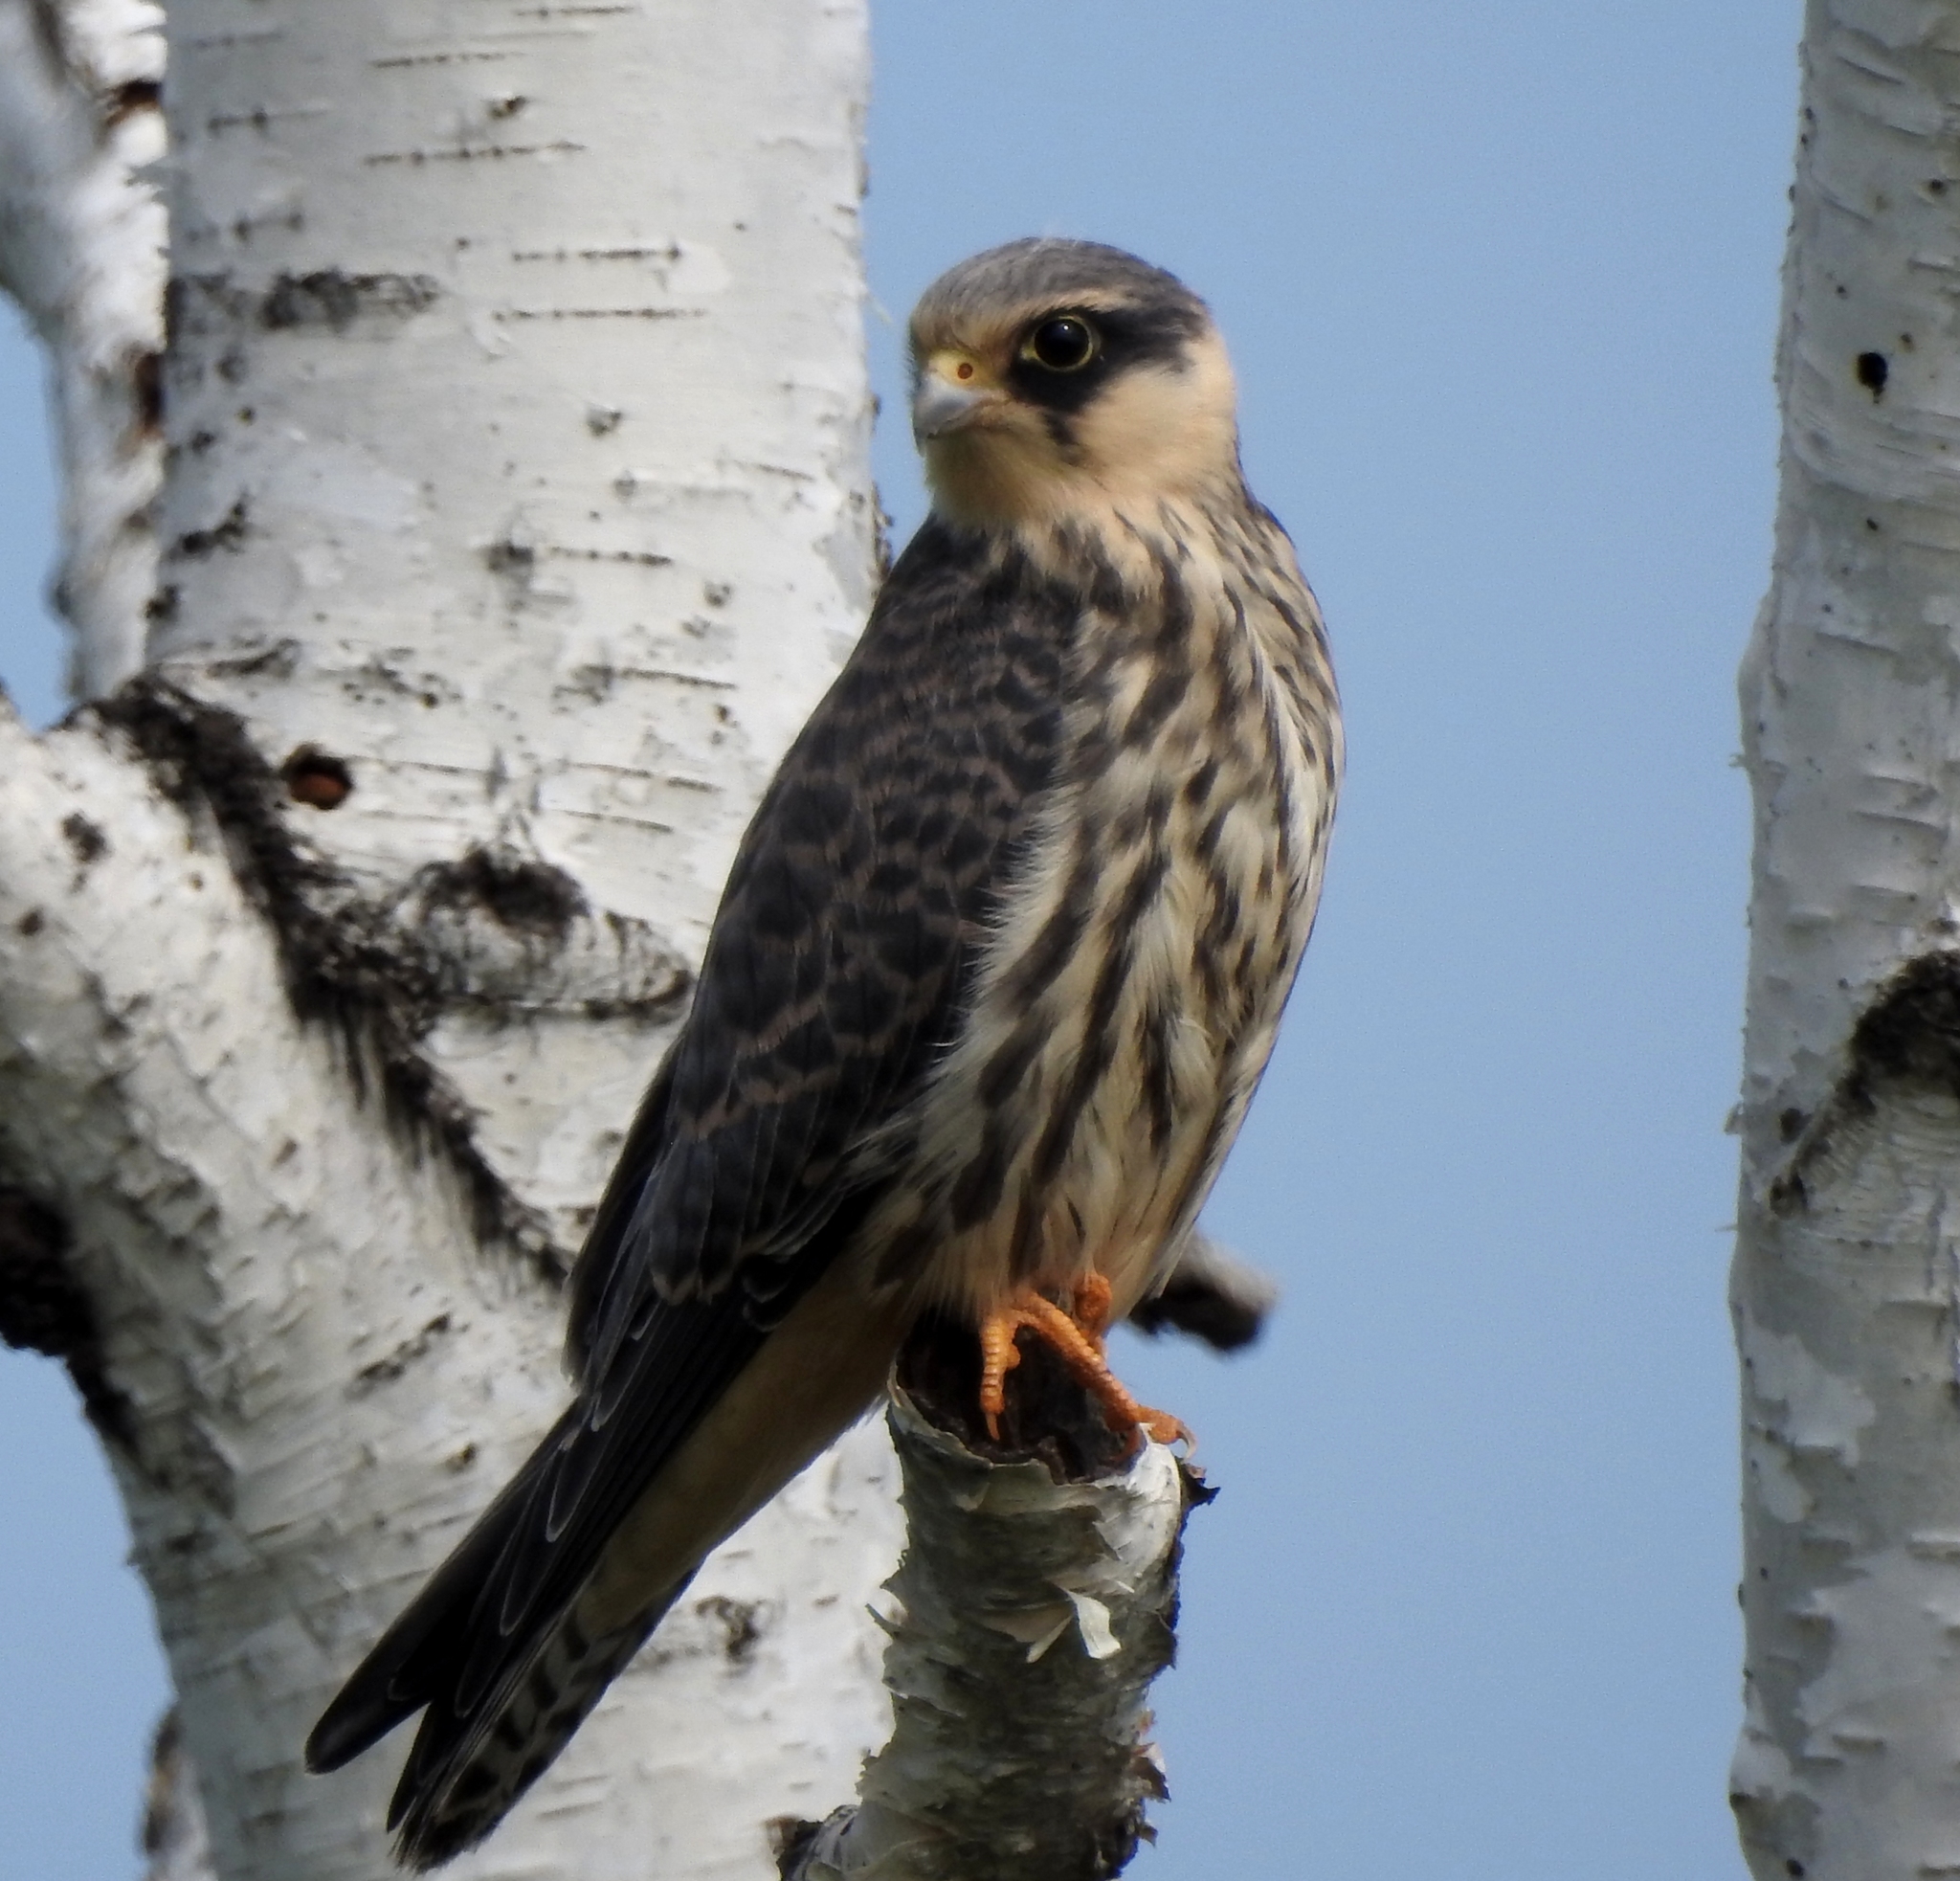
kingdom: Animalia
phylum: Chordata
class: Aves
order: Falconiformes
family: Falconidae
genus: Falco
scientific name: Falco amurensis
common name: Amur falcon
